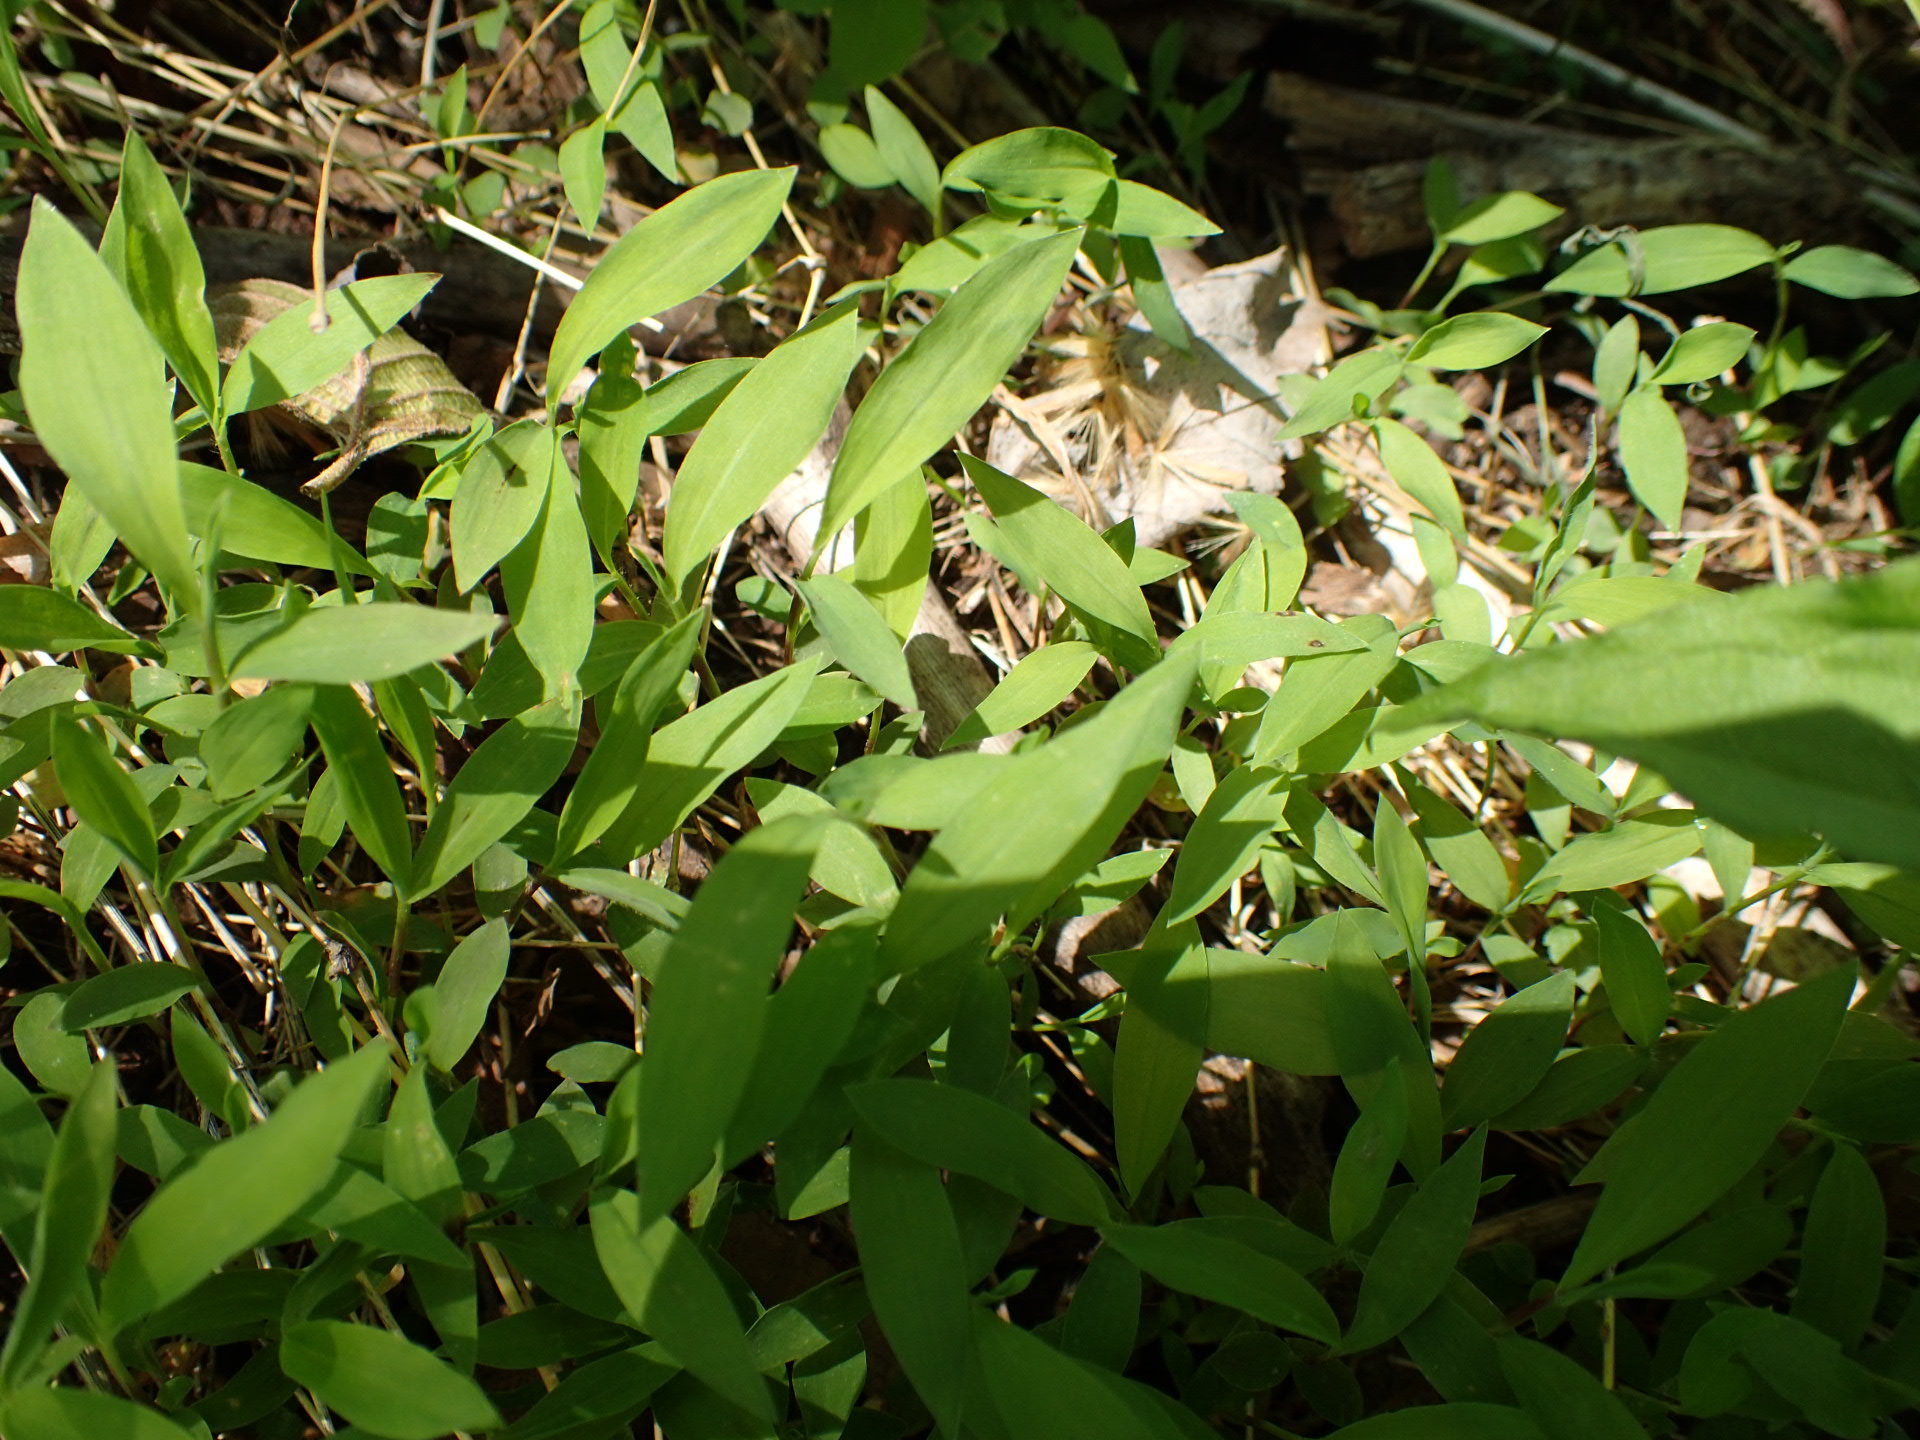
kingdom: Plantae
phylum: Tracheophyta
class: Liliopsida
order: Poales
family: Poaceae
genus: Microstegium
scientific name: Microstegium vimineum
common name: Japanese stiltgrass
